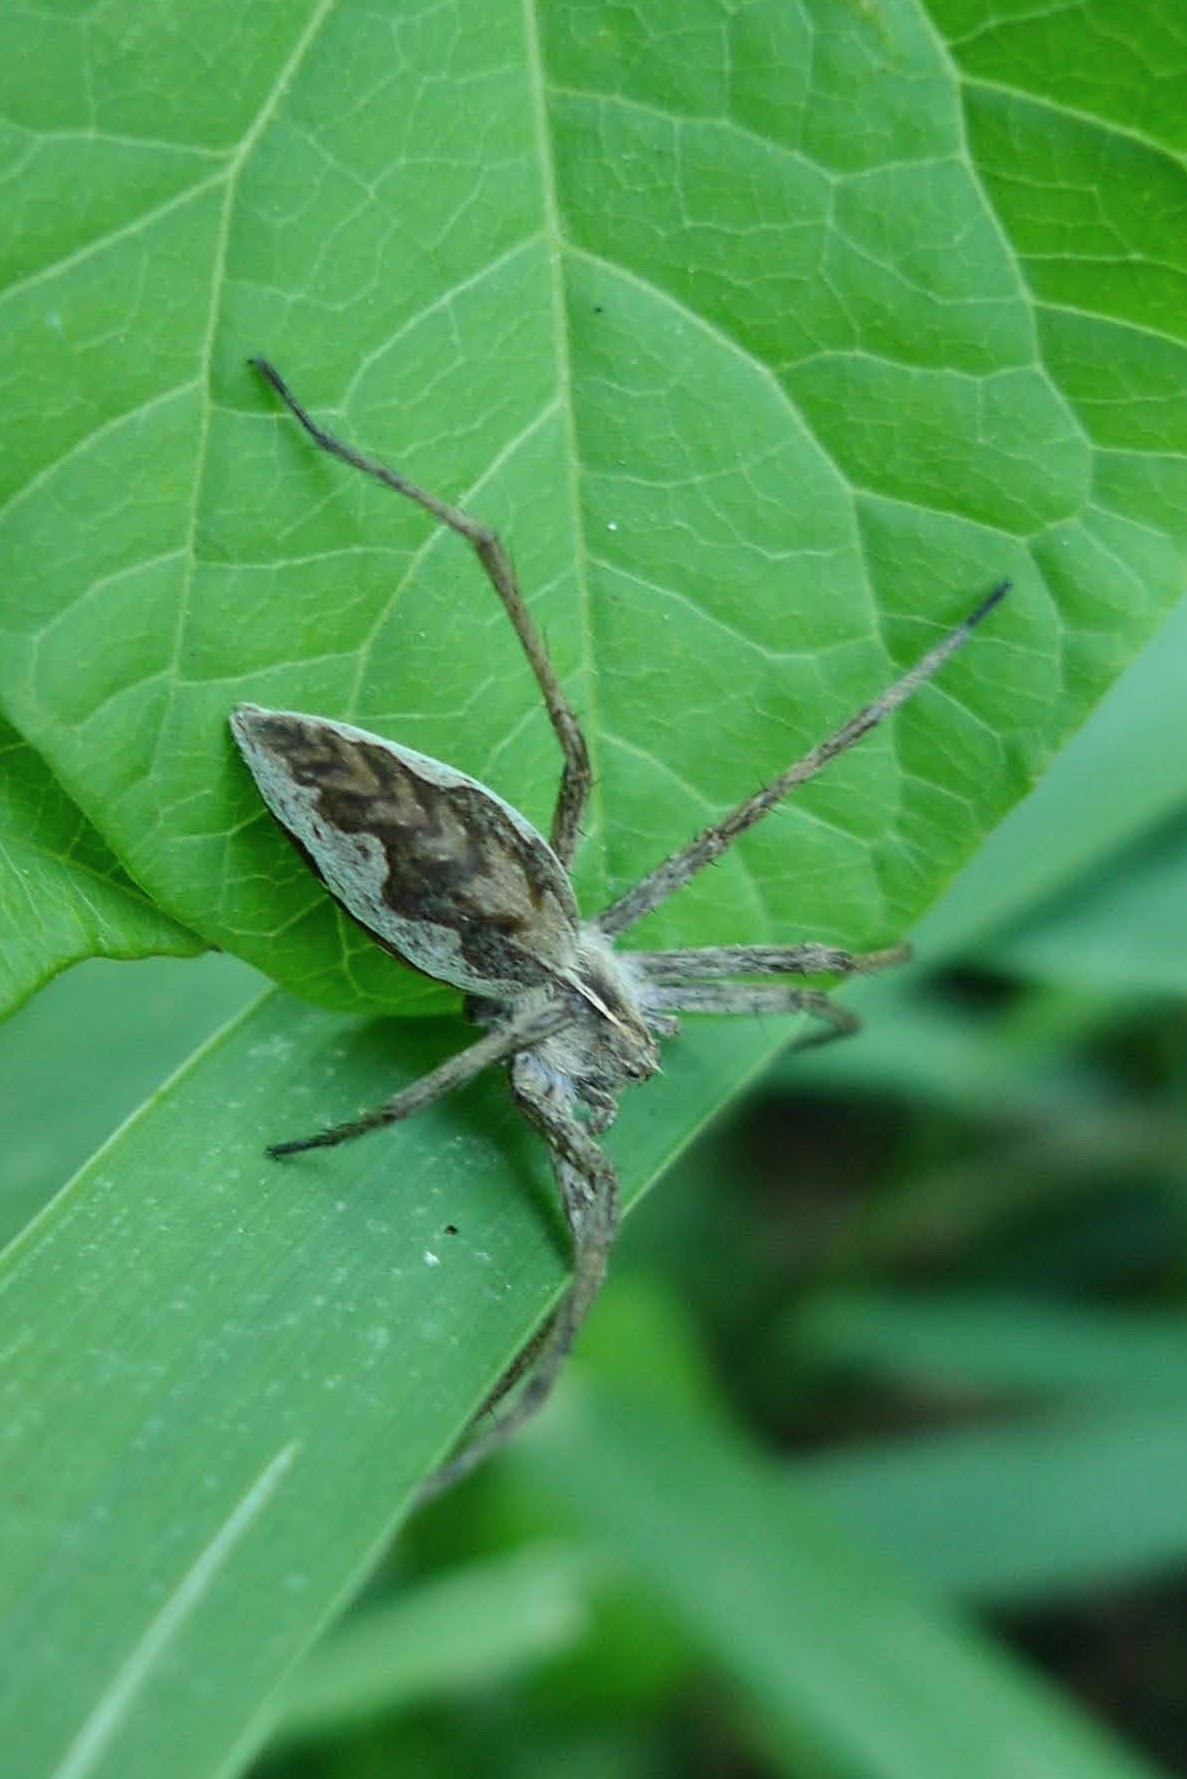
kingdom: Animalia
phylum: Arthropoda
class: Arachnida
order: Araneae
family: Pisauridae
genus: Pisaura
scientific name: Pisaura mirabilis
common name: Tent spider
